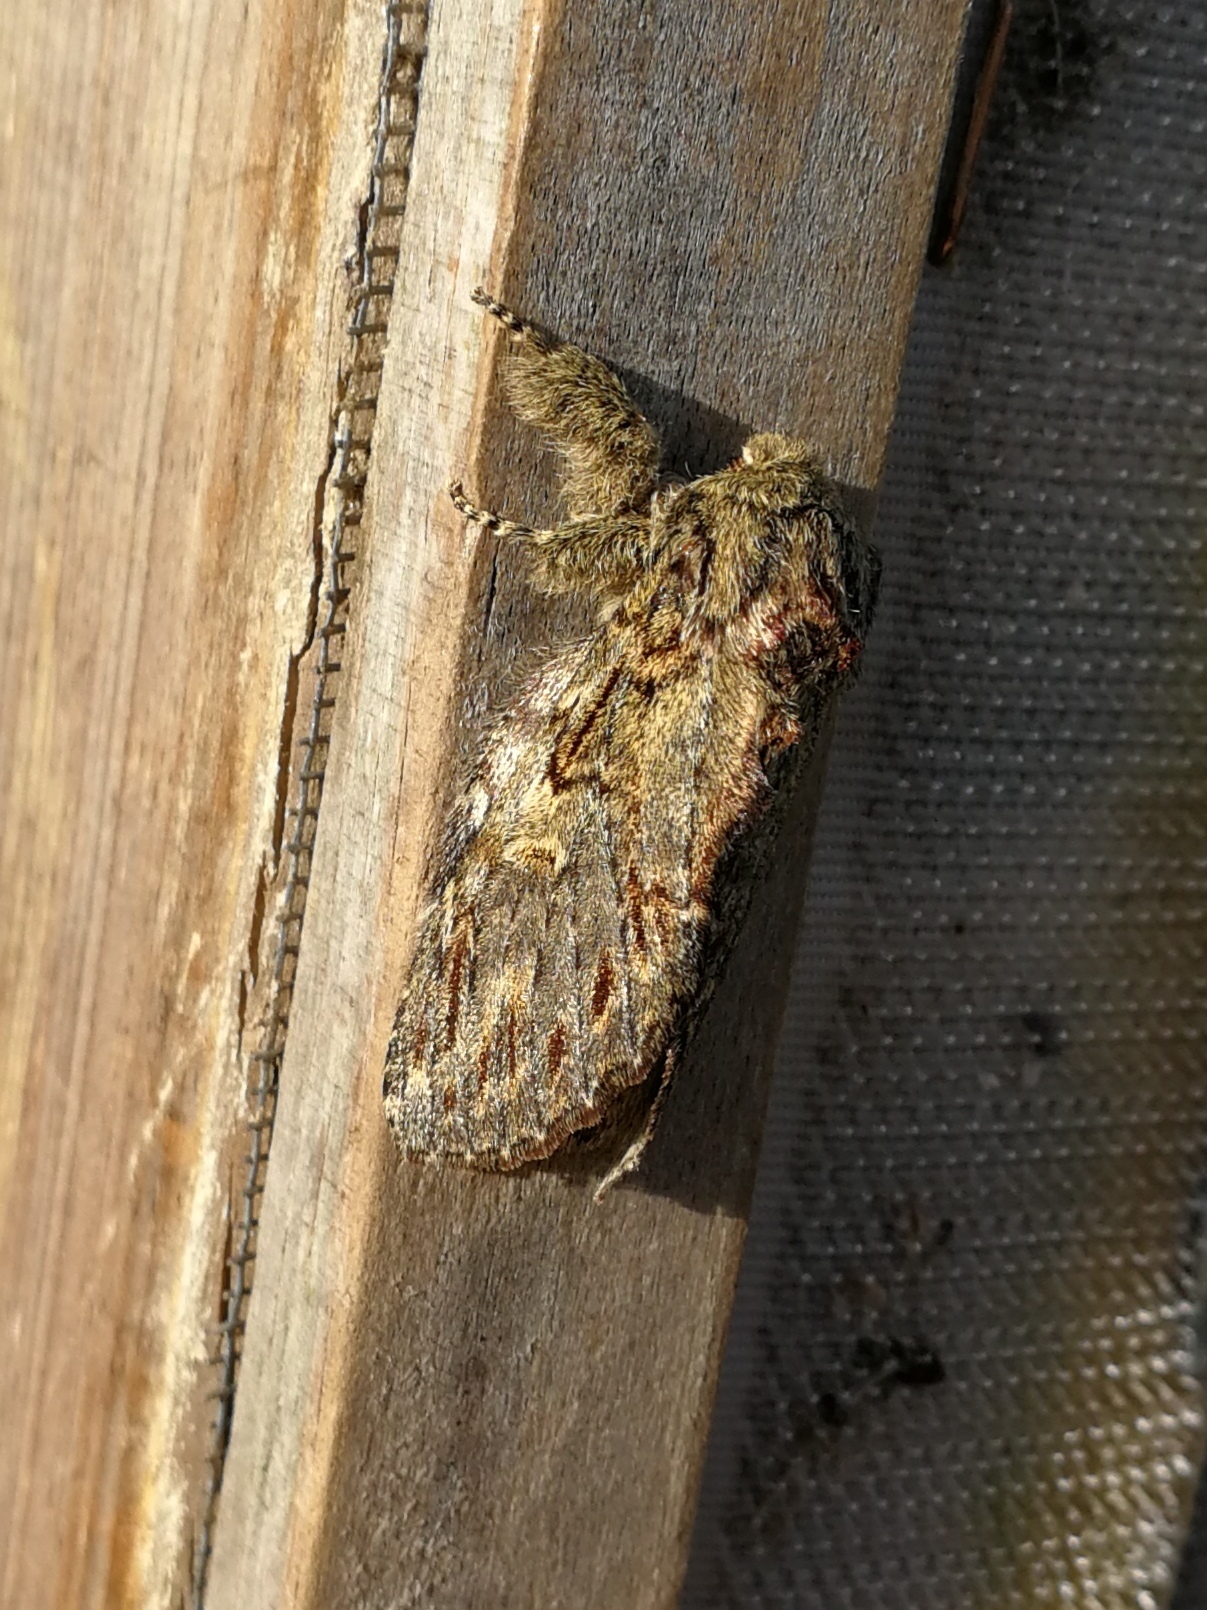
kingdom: Animalia
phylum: Arthropoda
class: Insecta
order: Lepidoptera
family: Notodontidae
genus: Peridea
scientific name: Peridea anceps
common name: Great prominent
